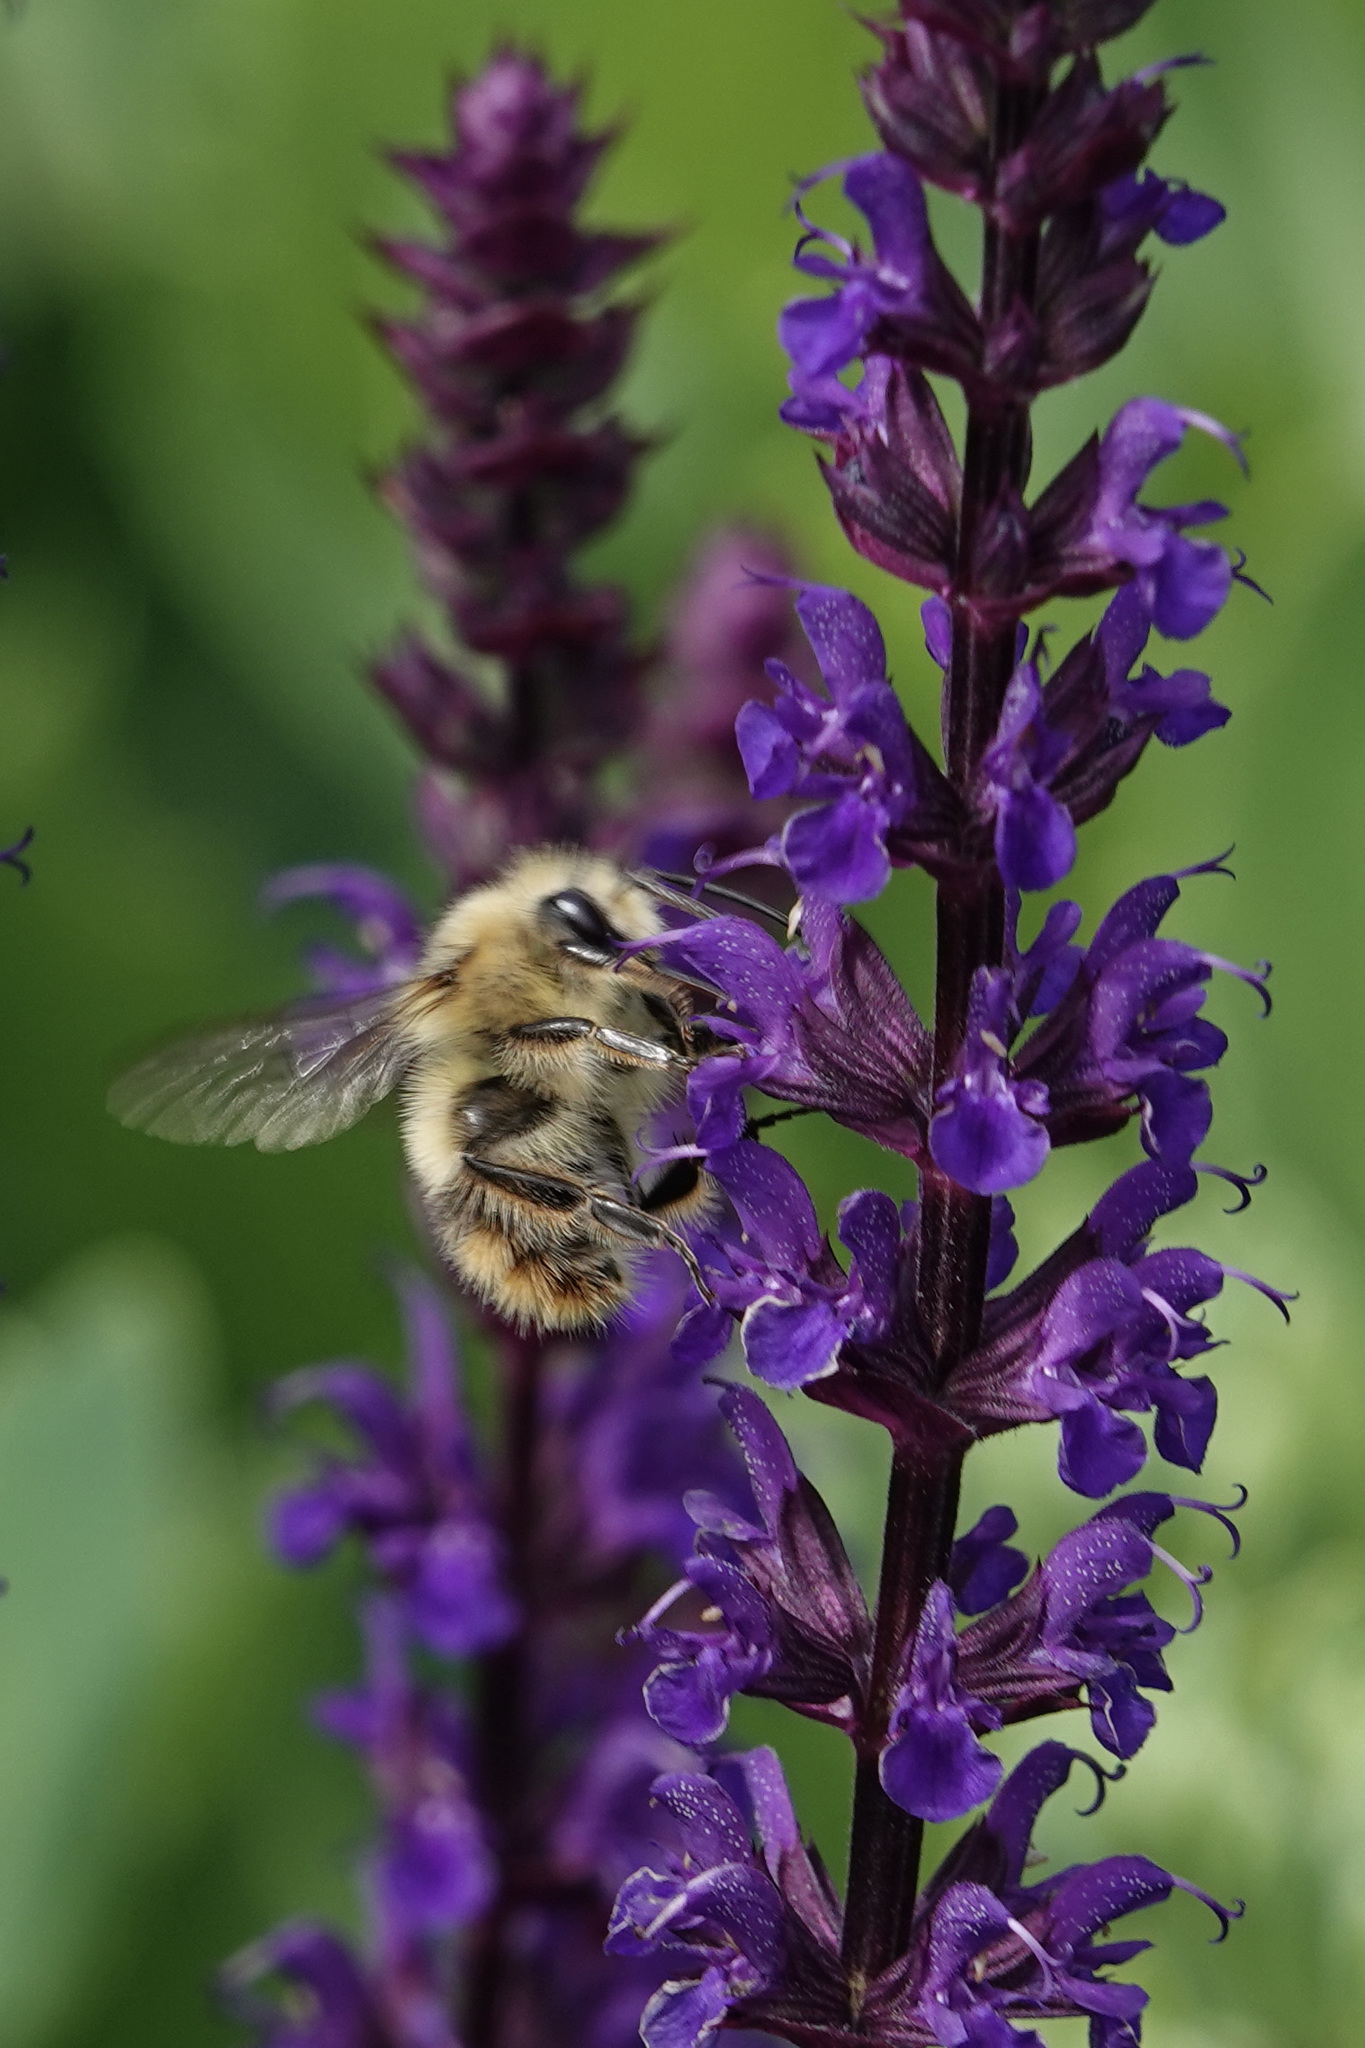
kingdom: Animalia
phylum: Arthropoda
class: Insecta
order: Hymenoptera
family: Apidae
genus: Bombus
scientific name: Bombus mixtus
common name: Fuzzy-horned bumble bee
